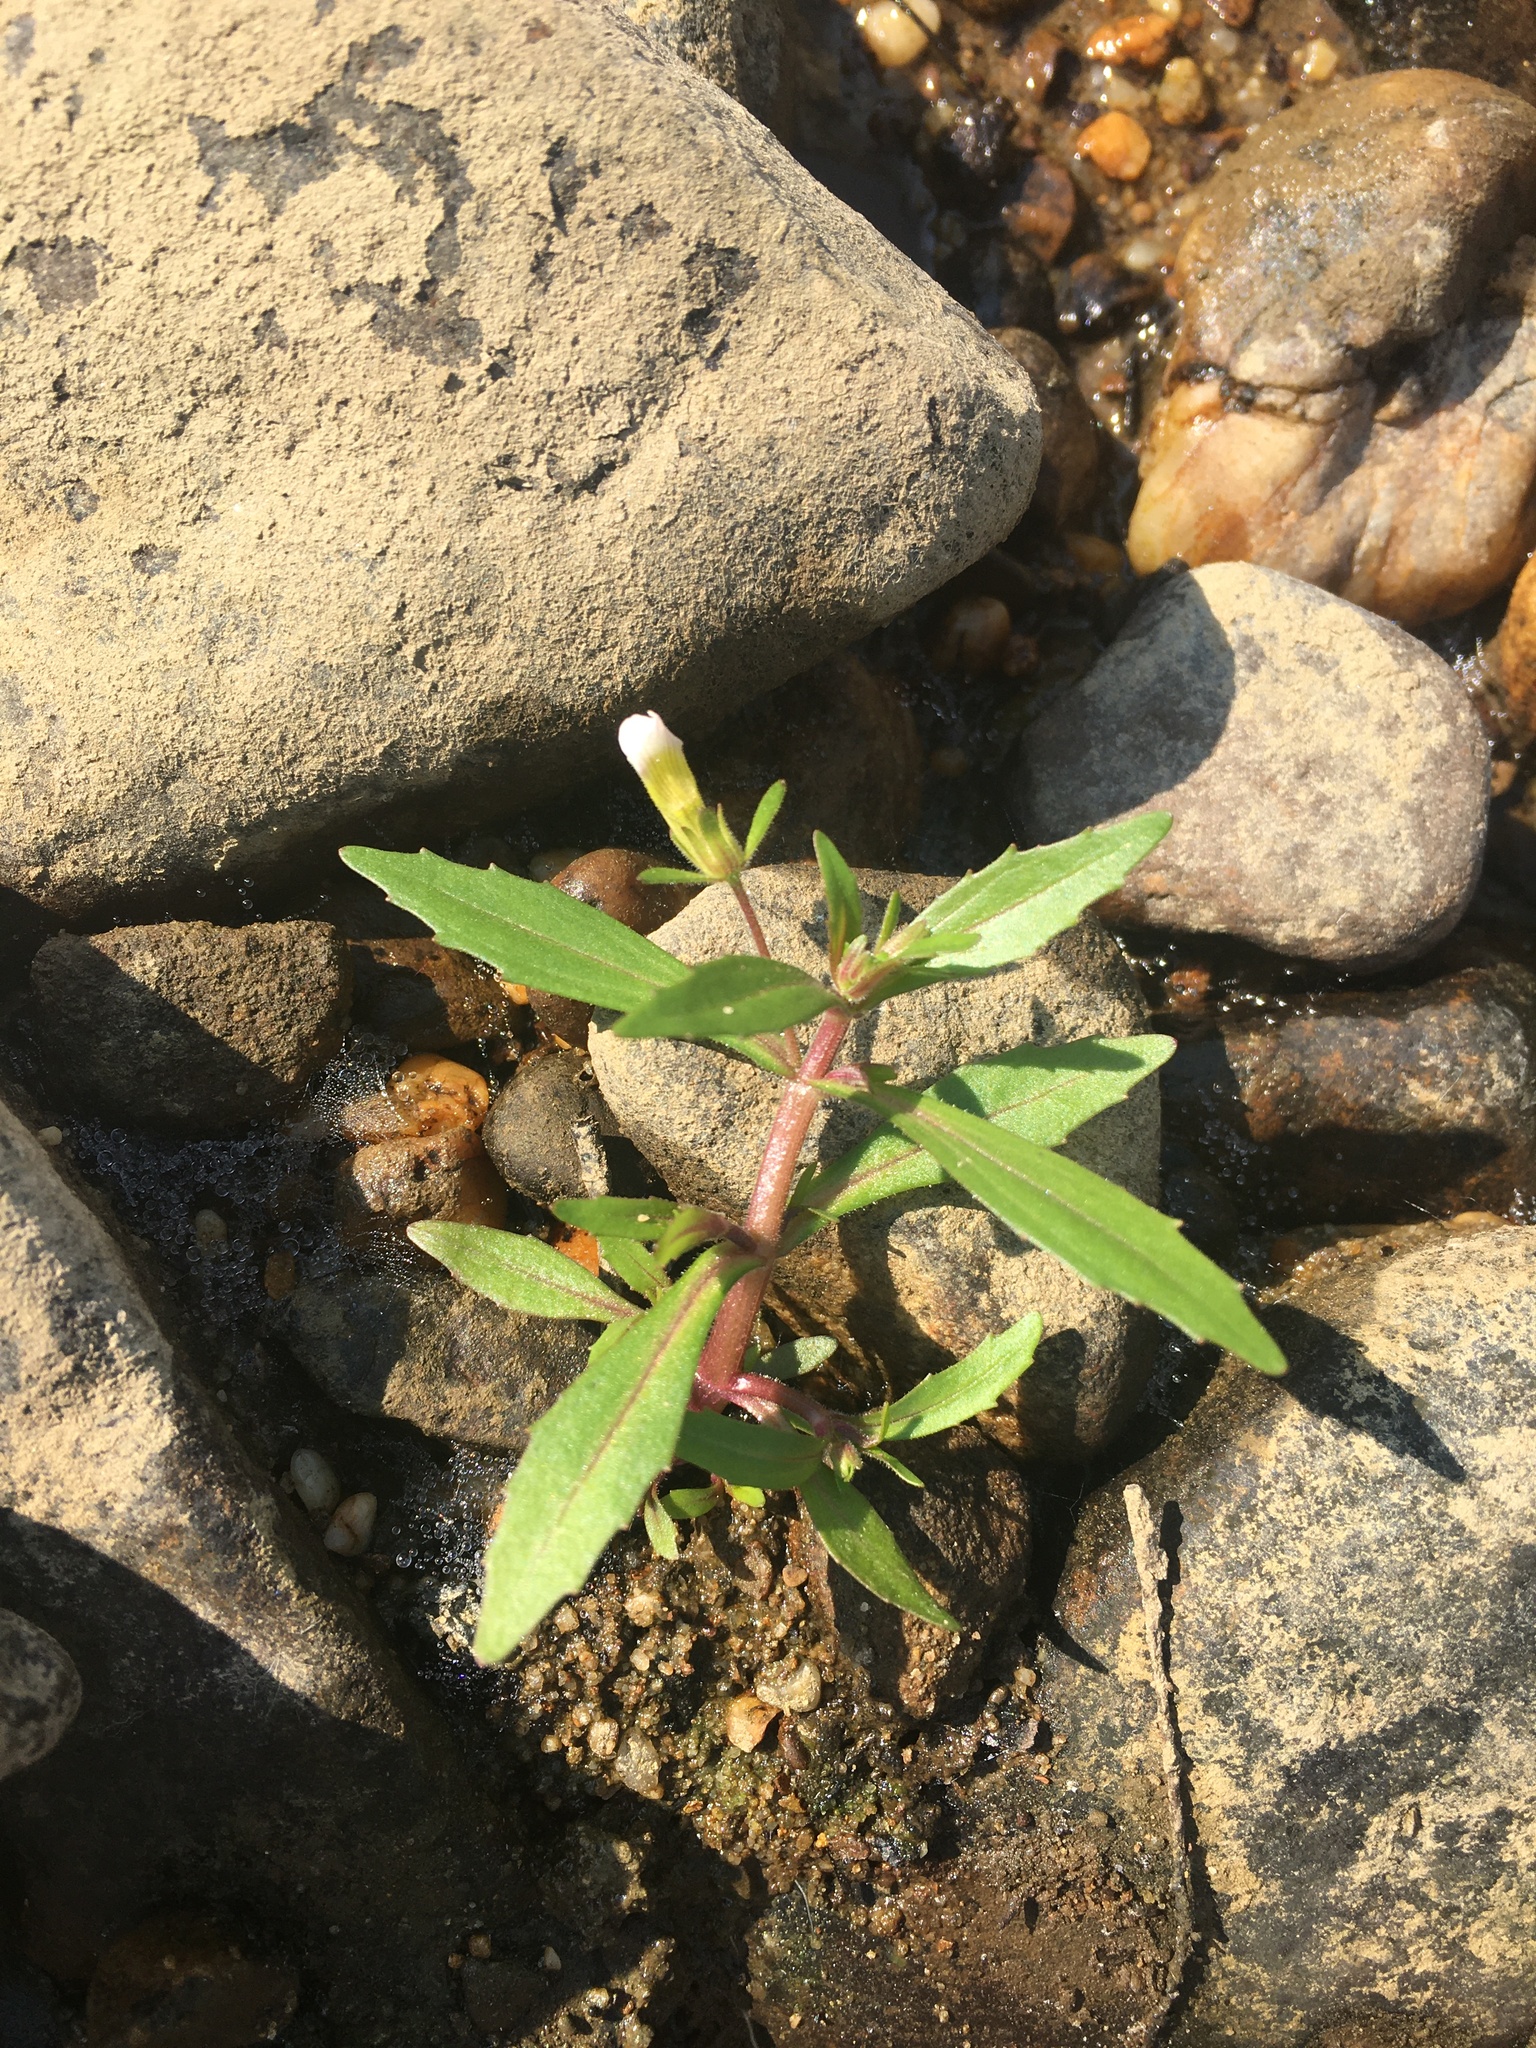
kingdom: Plantae
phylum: Tracheophyta
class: Magnoliopsida
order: Lamiales
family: Plantaginaceae
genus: Gratiola
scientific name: Gratiola neglecta
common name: American hedge-hyssop
